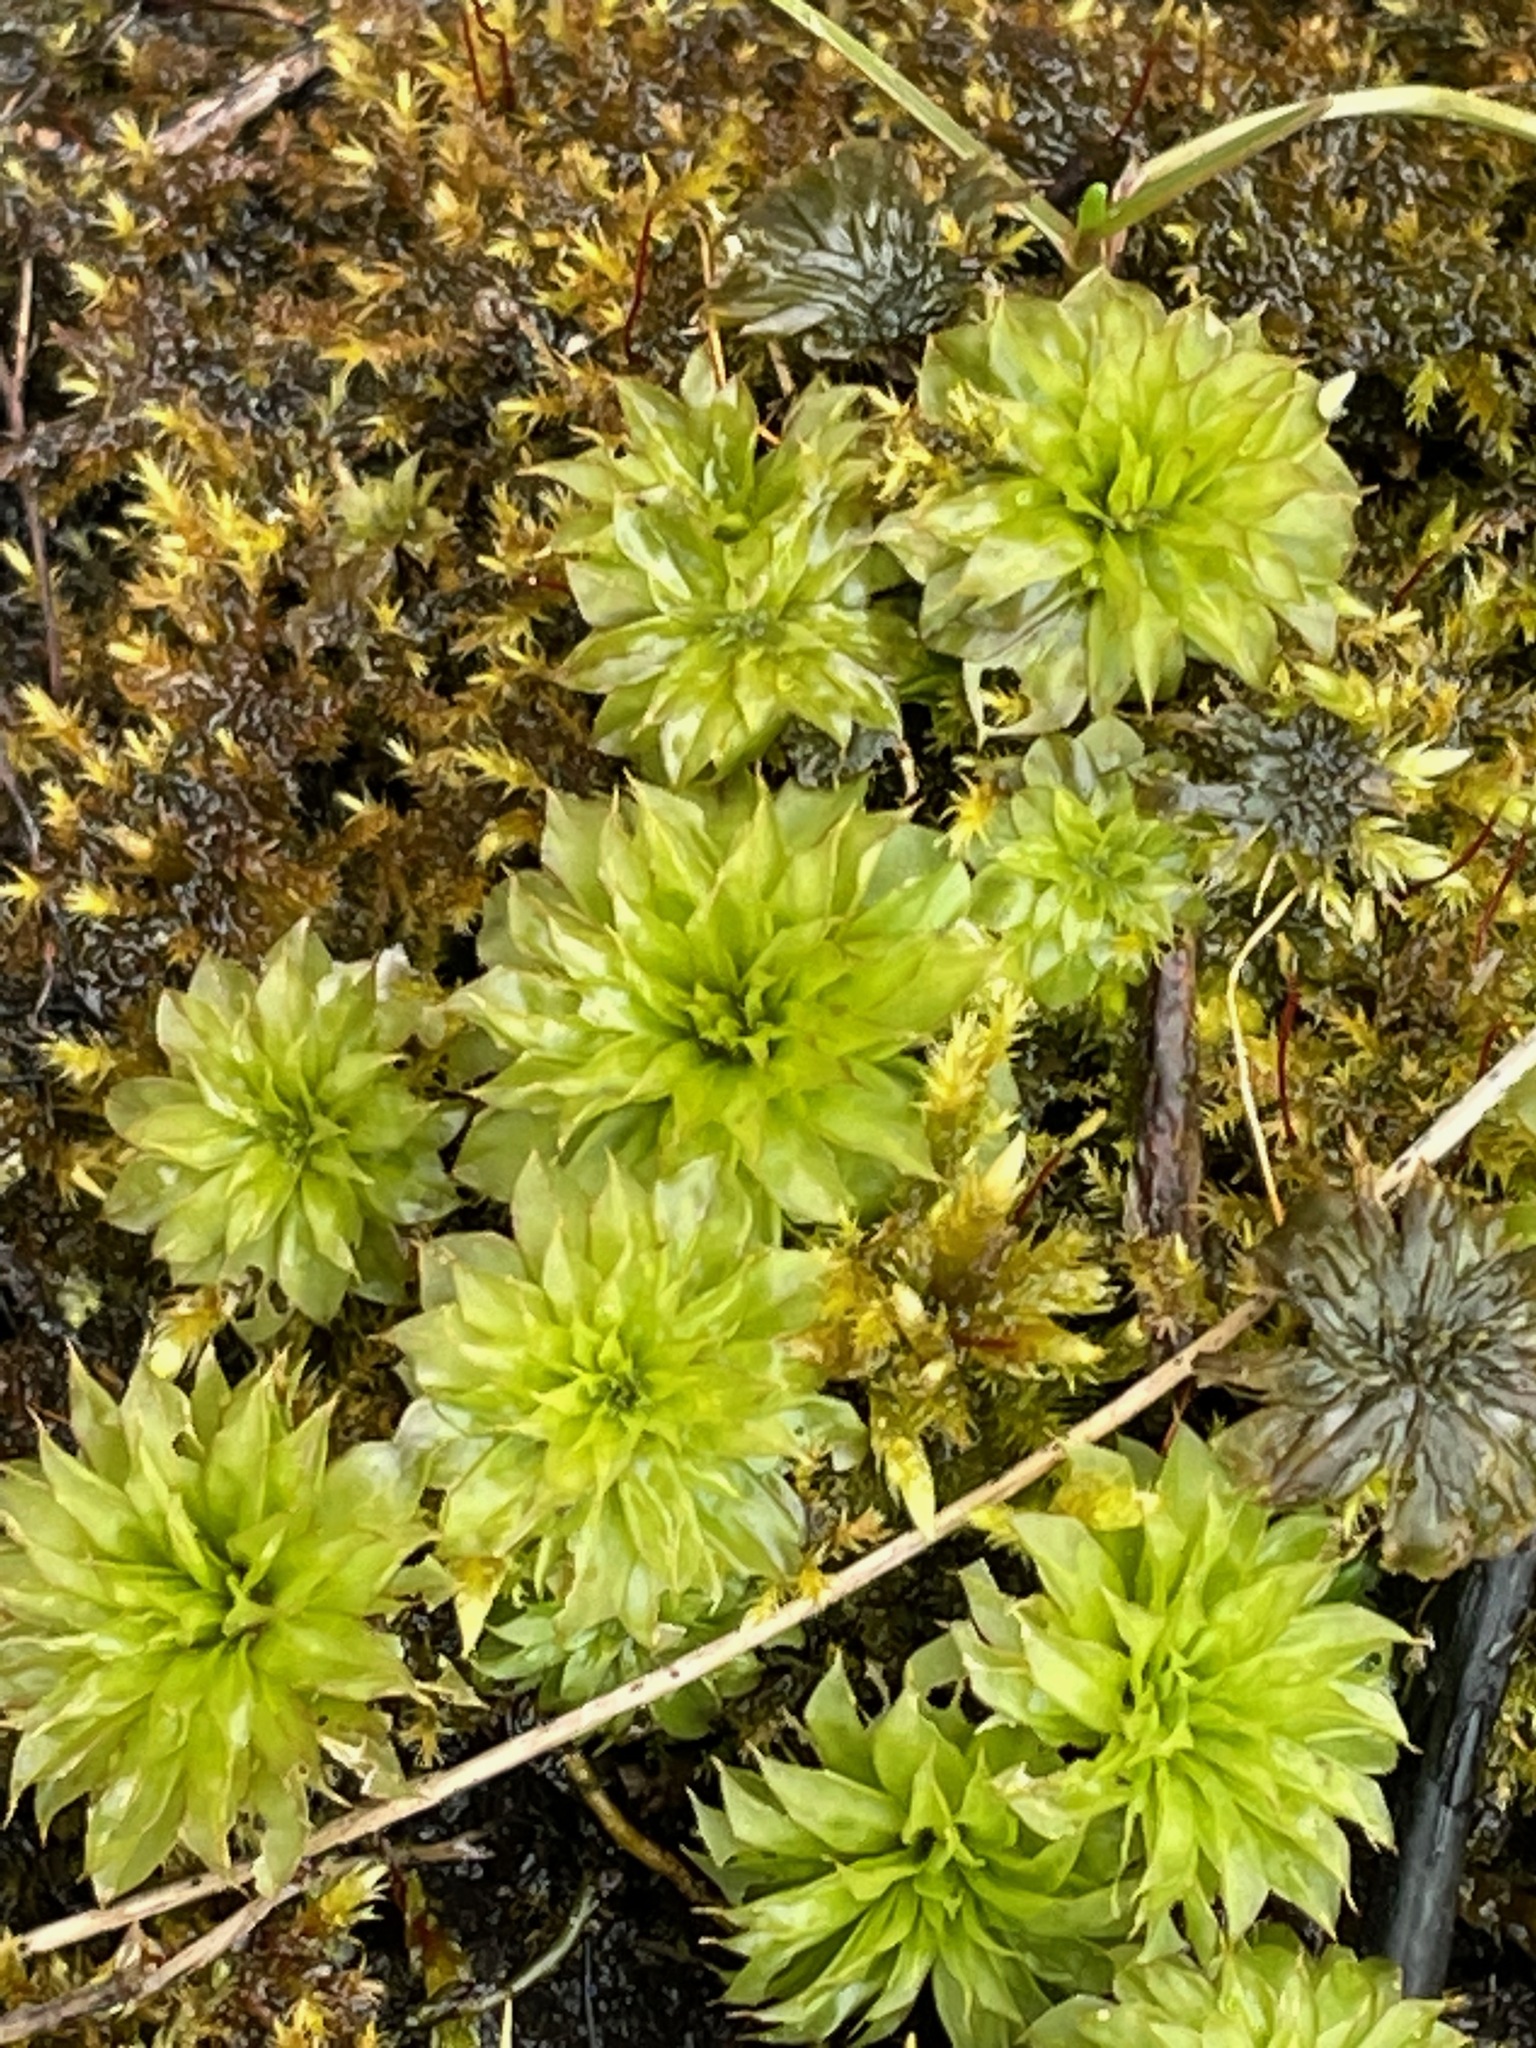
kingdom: Plantae
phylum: Bryophyta
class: Bryopsida
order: Bryales
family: Bryaceae
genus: Rhodobryum
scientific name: Rhodobryum ontariense
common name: Ontario rhodobryum moss
